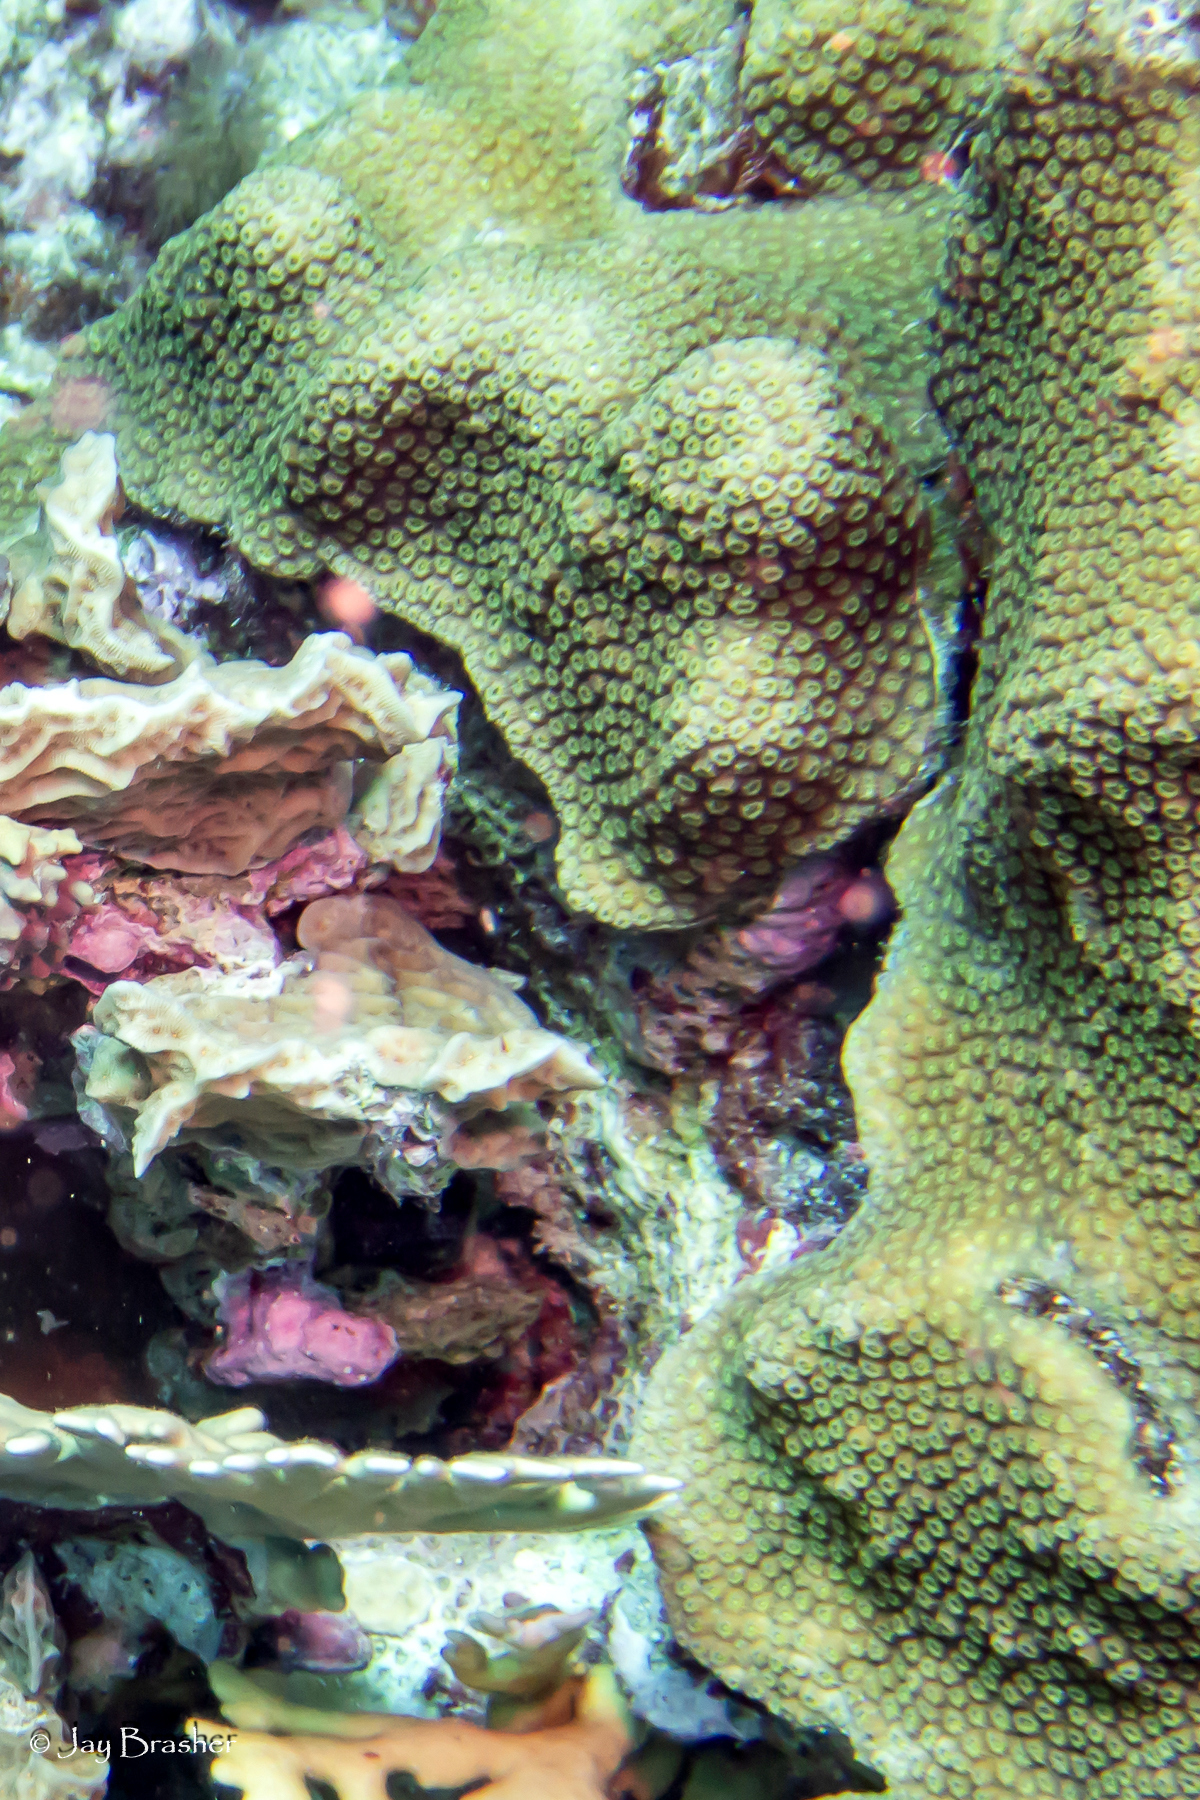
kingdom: Animalia
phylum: Cnidaria
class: Anthozoa
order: Scleractinia
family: Merulinidae
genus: Orbicella
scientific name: Orbicella faveolata
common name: Mountainous star coral
